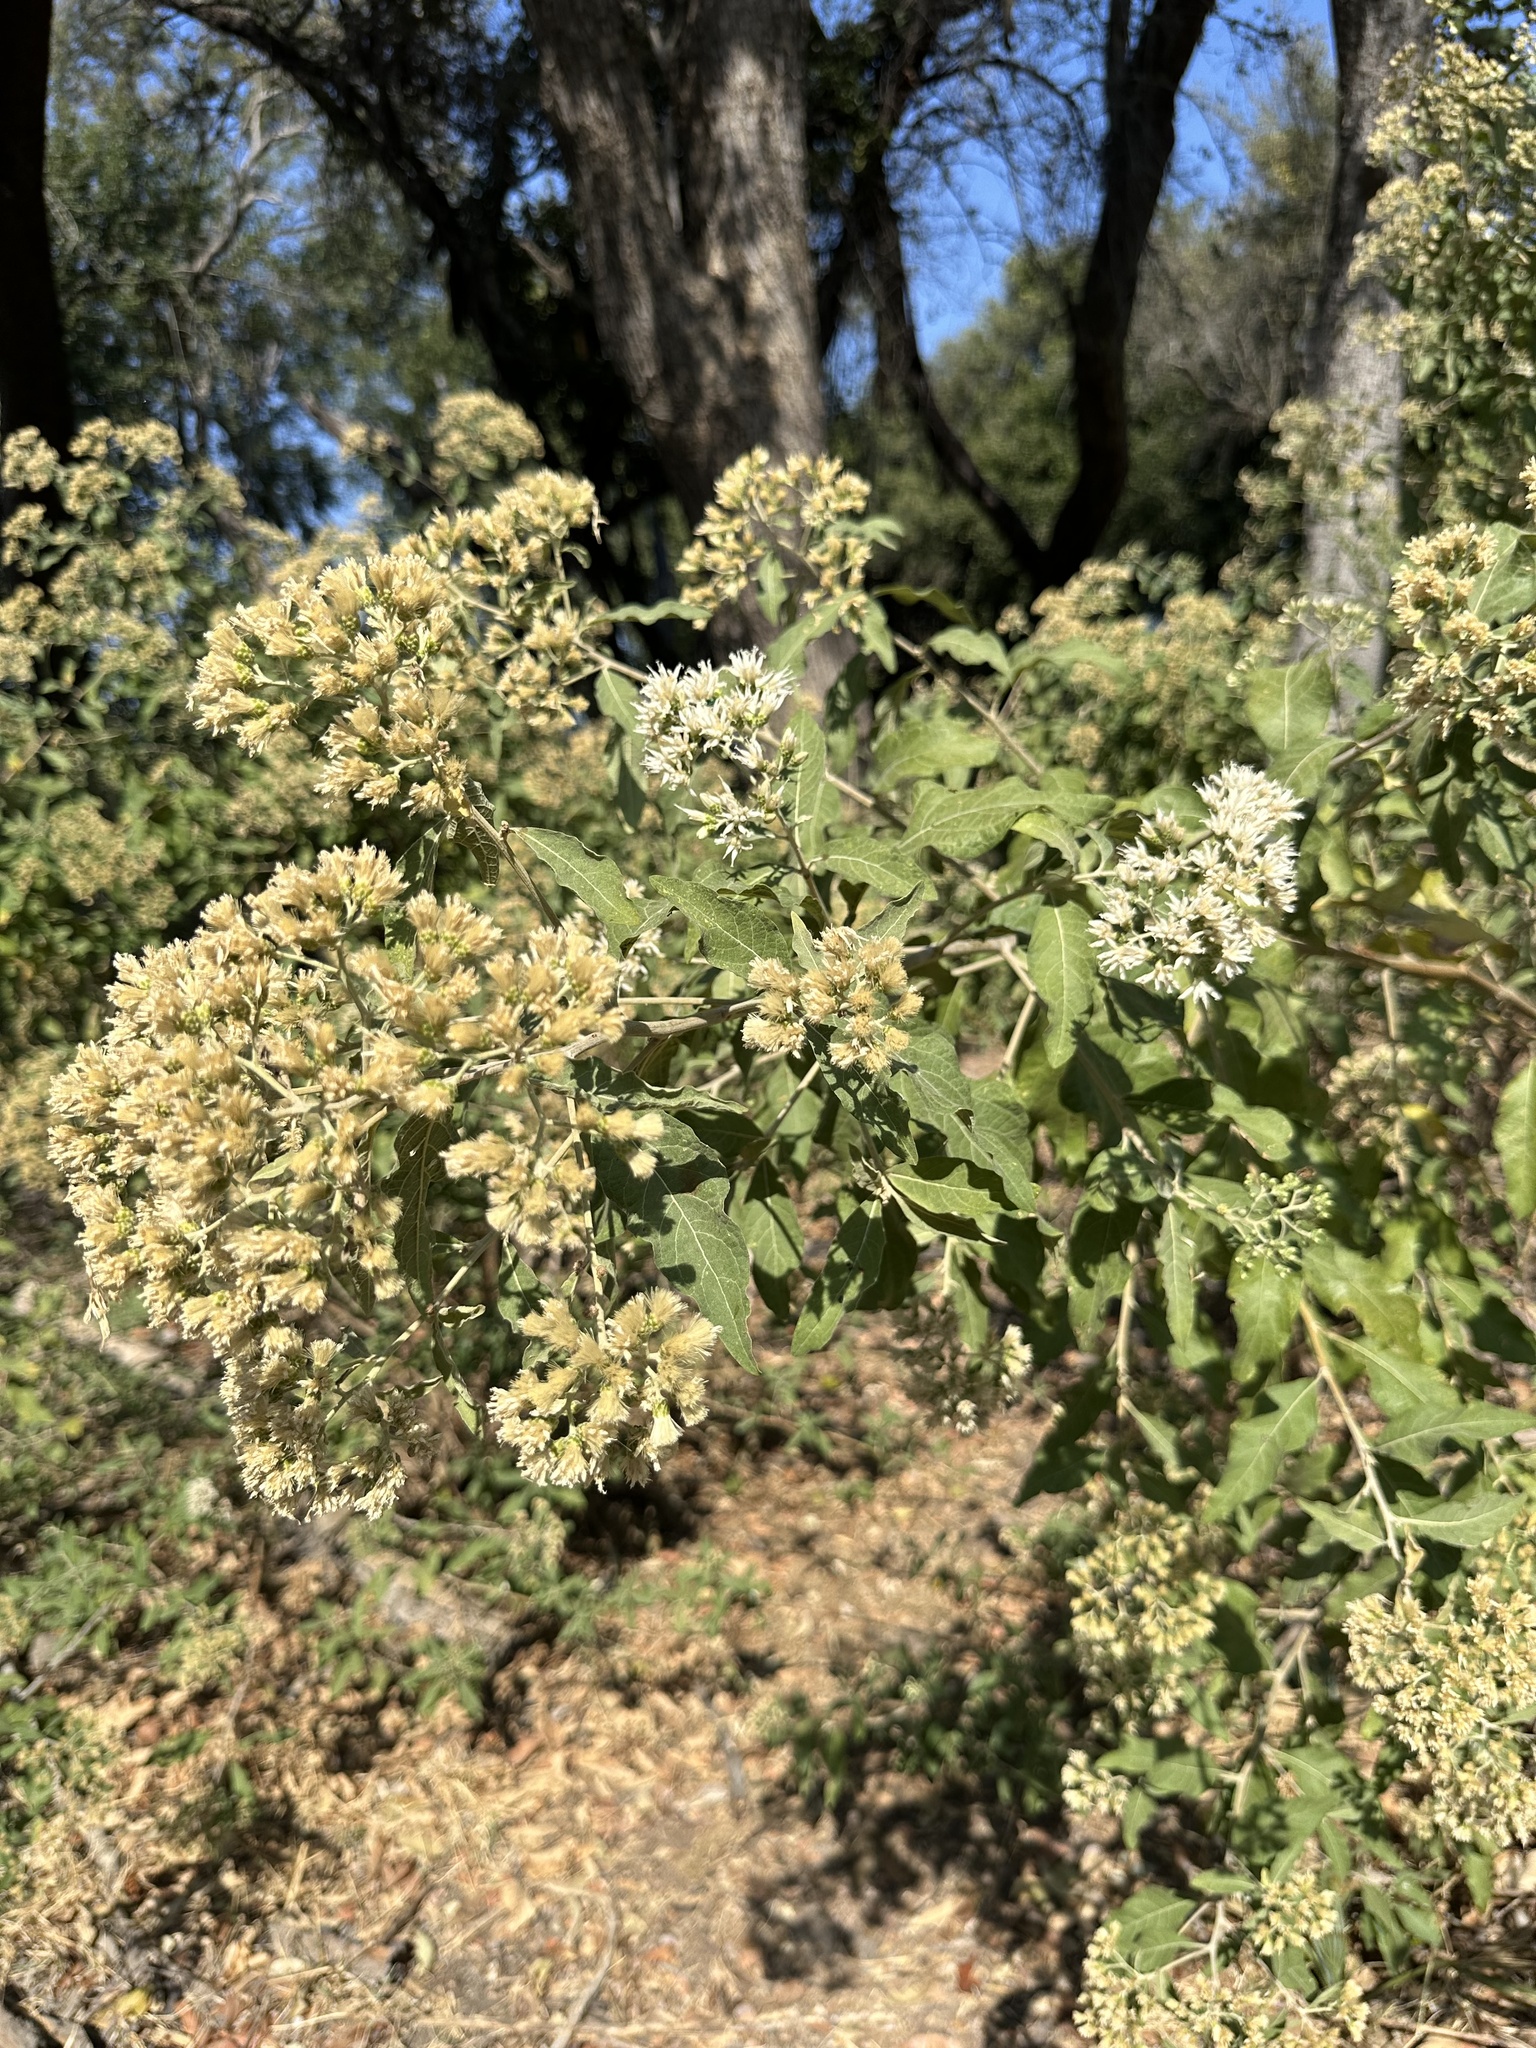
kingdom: Plantae
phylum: Tracheophyta
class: Magnoliopsida
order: Asterales
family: Asteraceae
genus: Gymnanthemum
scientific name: Gymnanthemum amygdalinum
